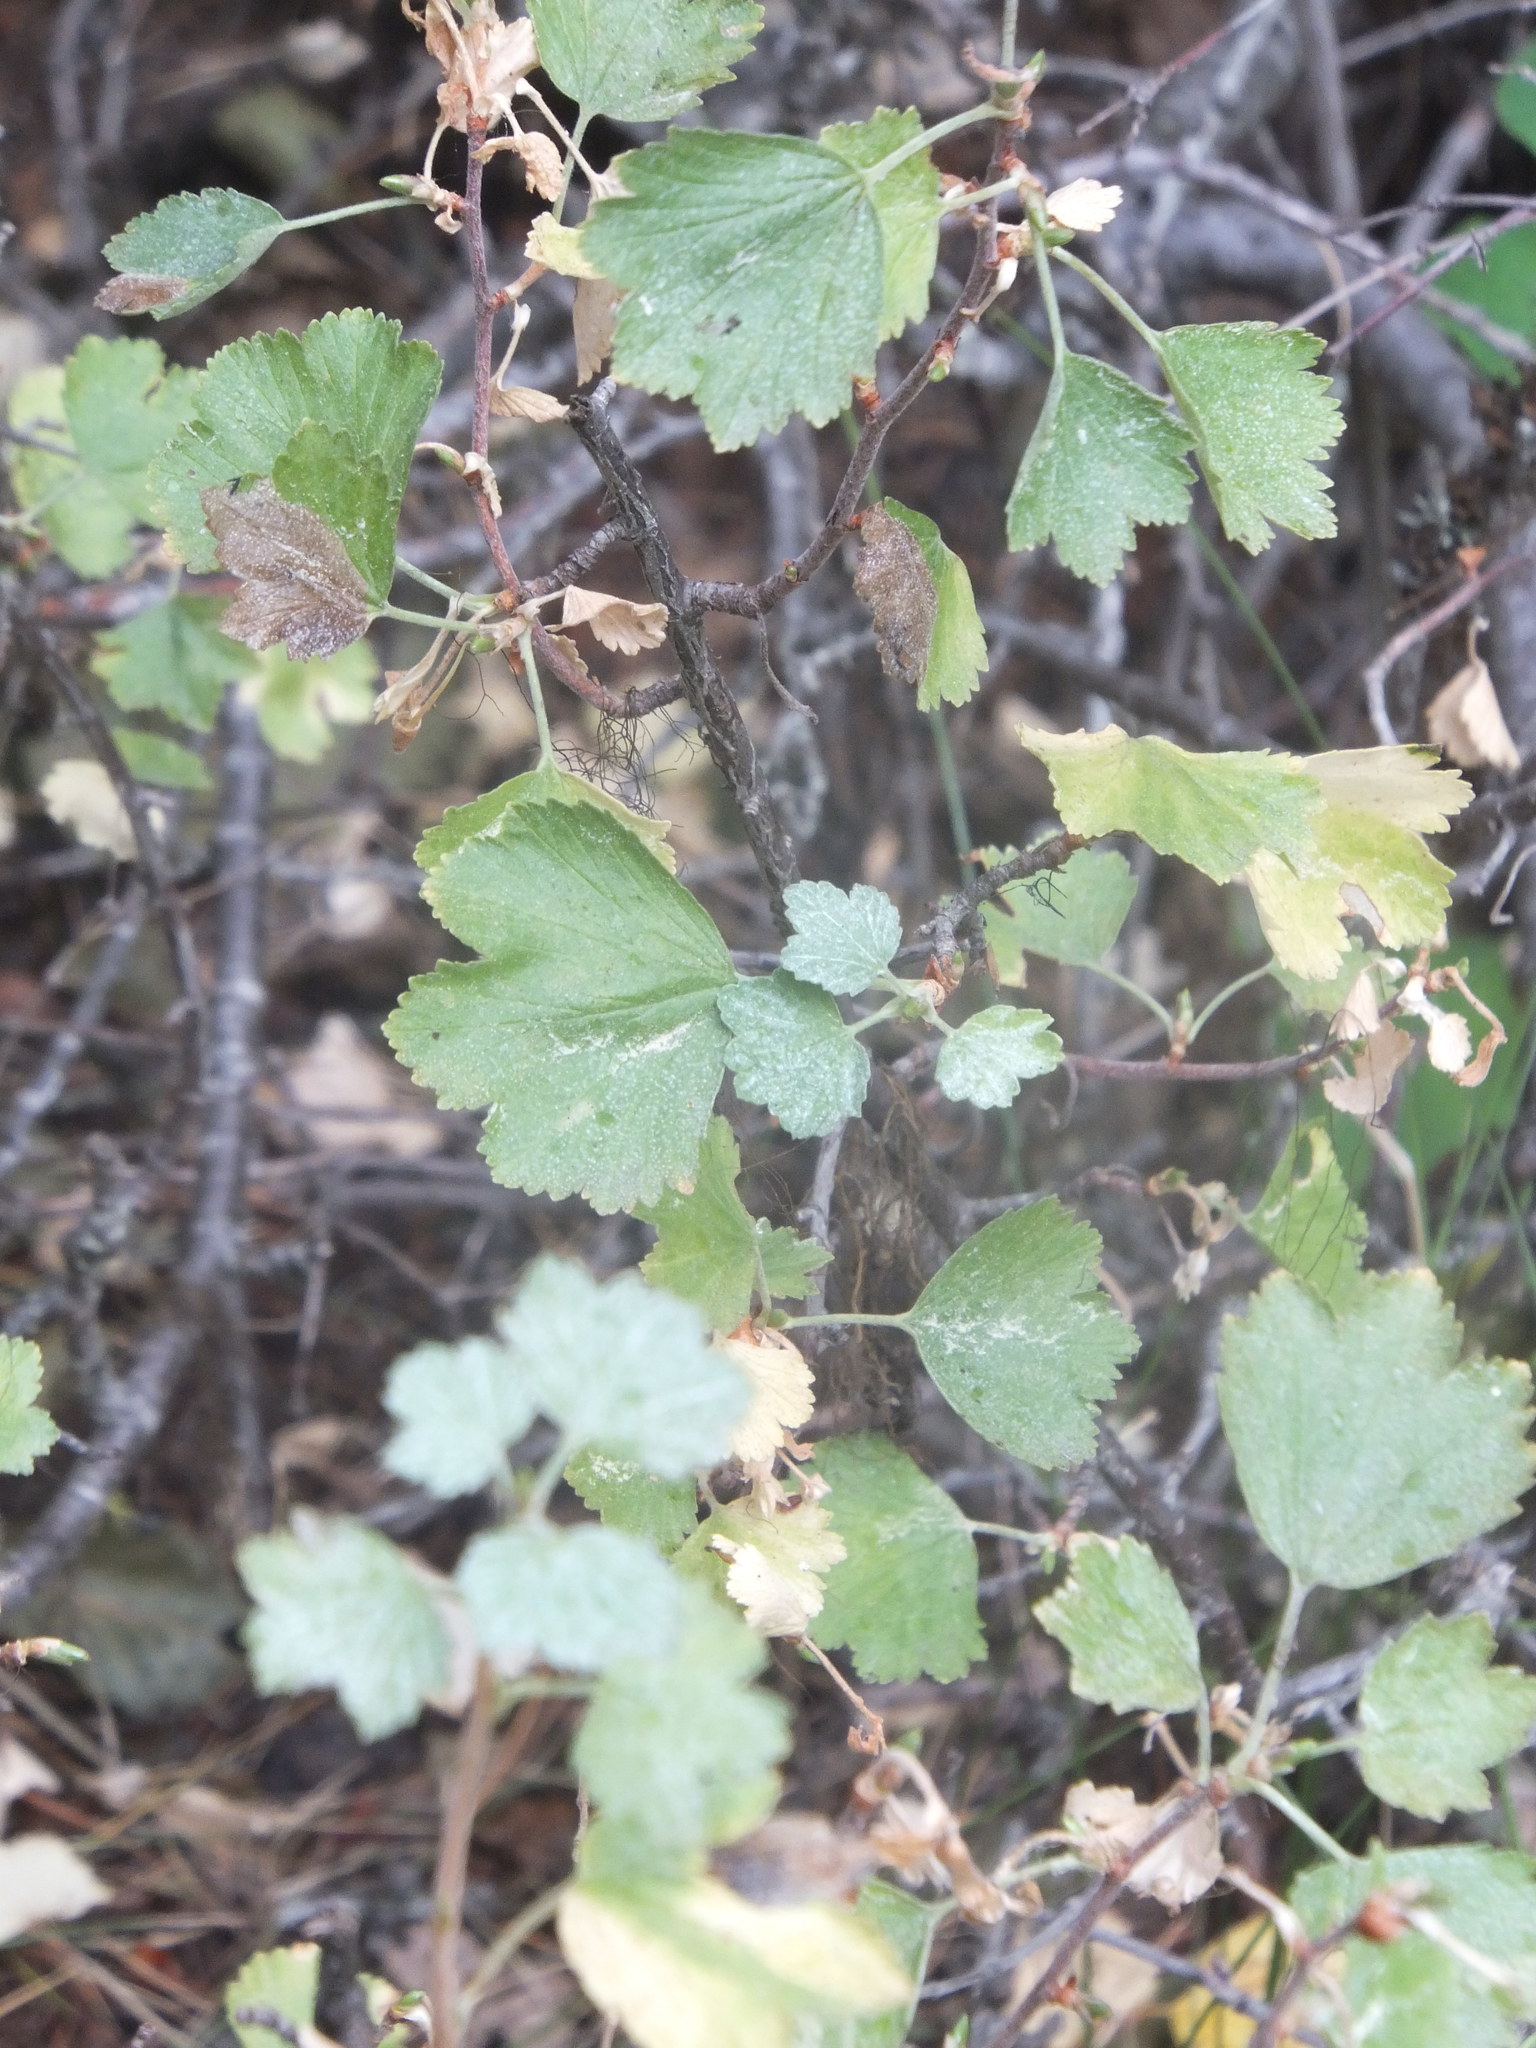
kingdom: Plantae
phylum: Tracheophyta
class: Magnoliopsida
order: Saxifragales
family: Grossulariaceae
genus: Ribes
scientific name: Ribes cereum
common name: Wax currant
